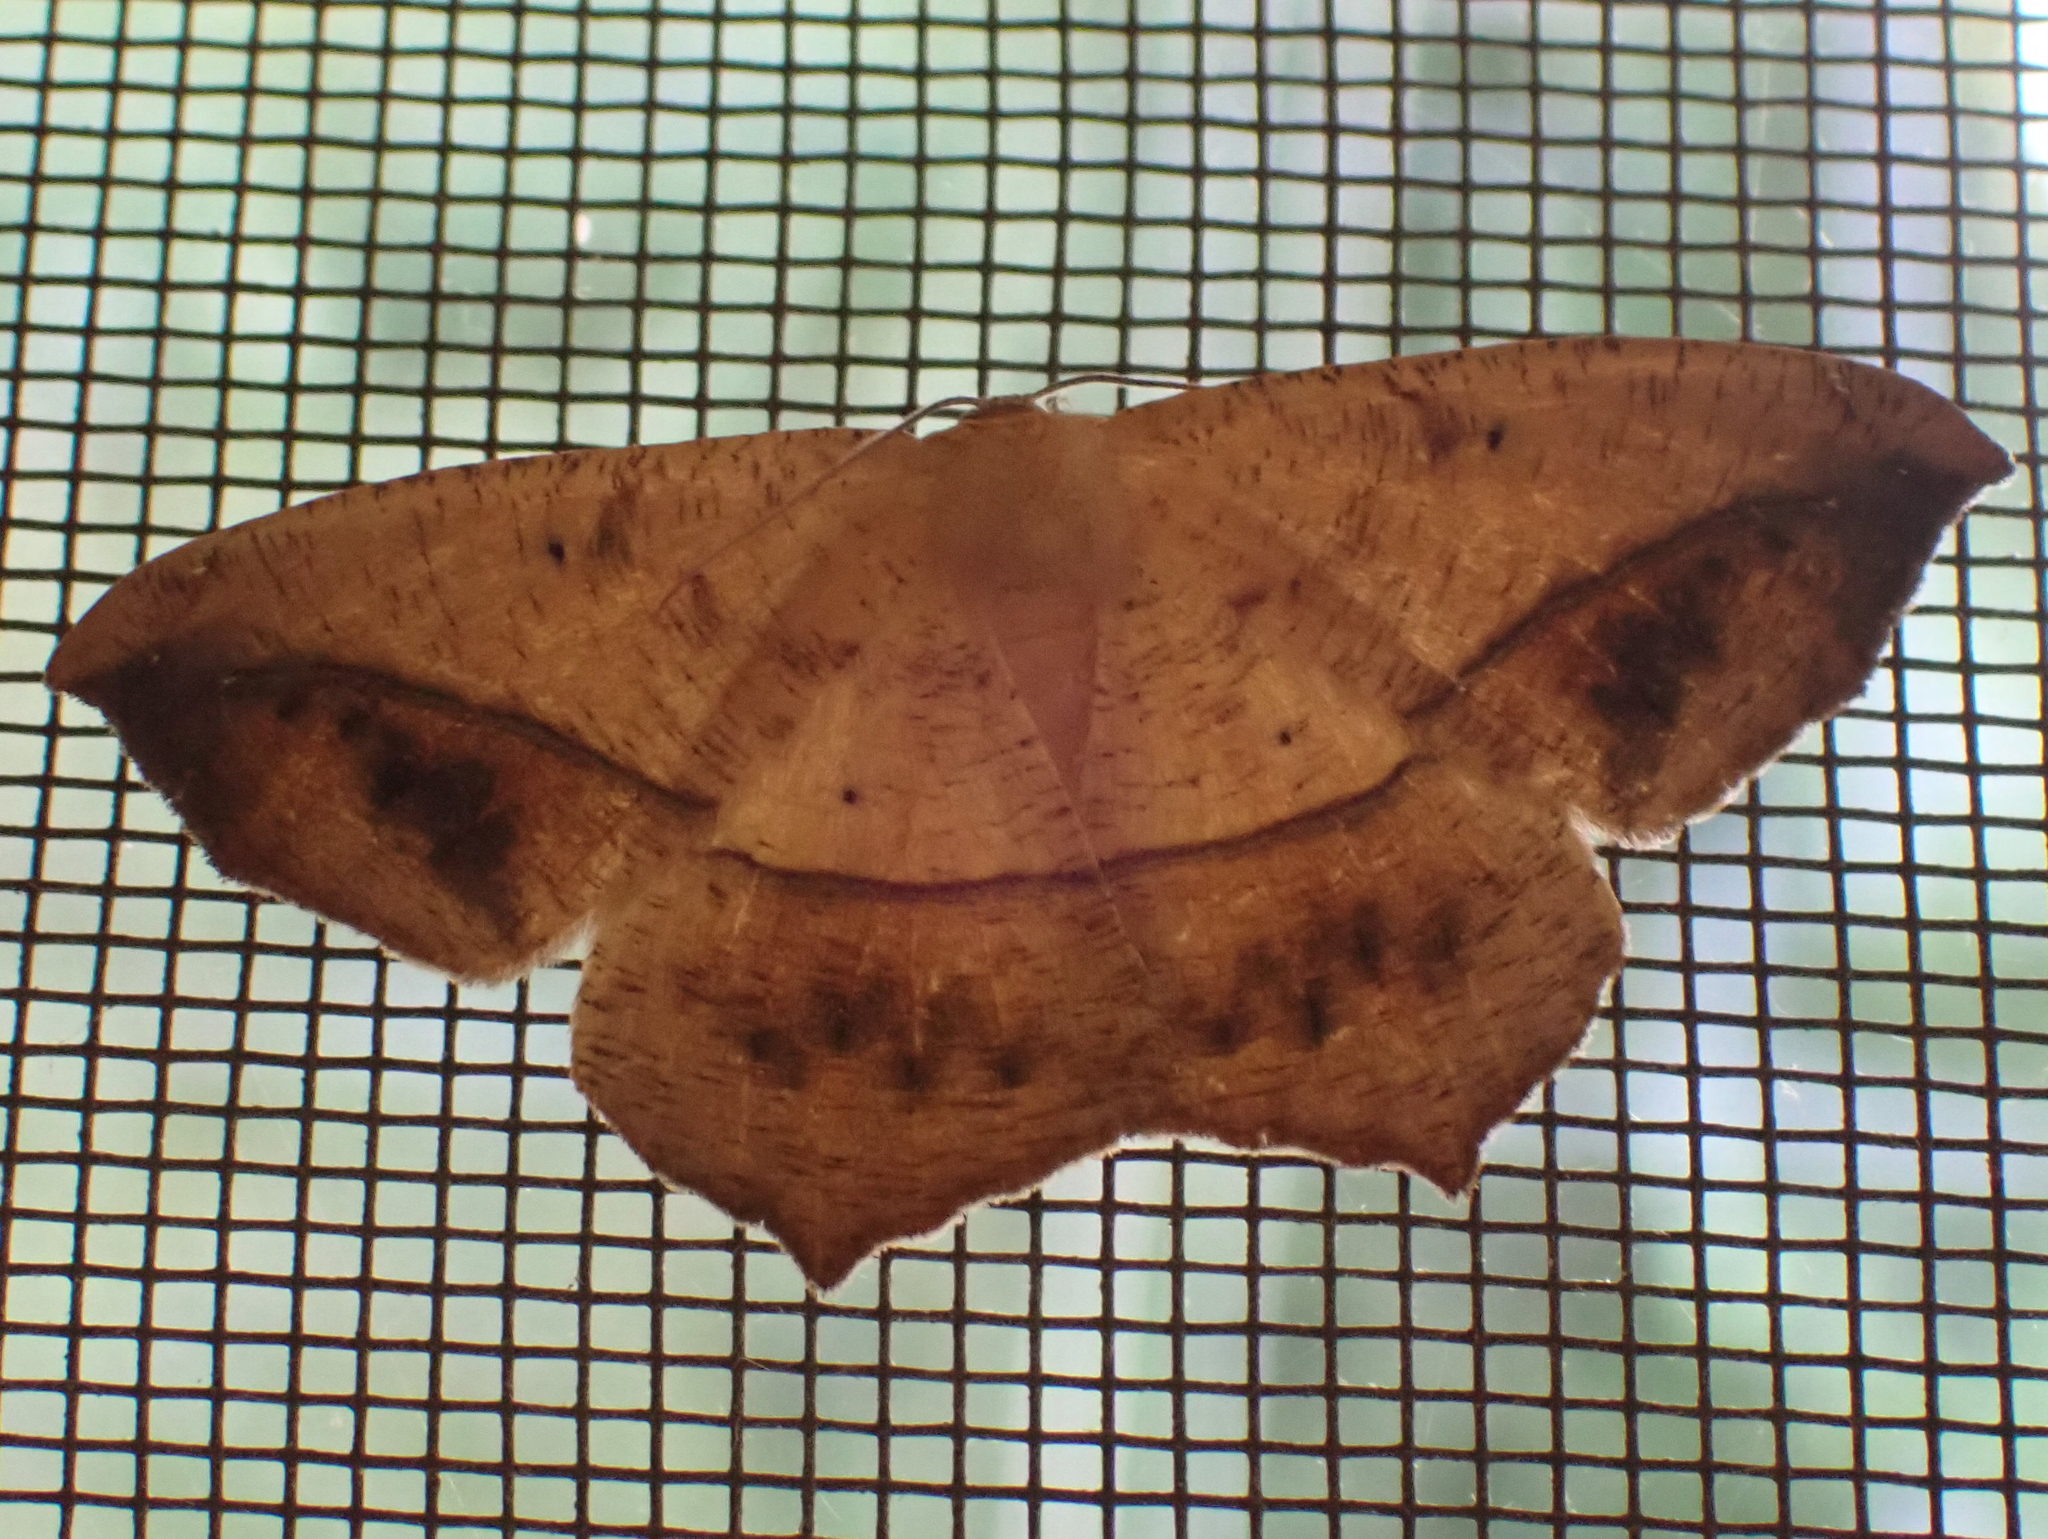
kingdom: Animalia
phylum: Arthropoda
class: Insecta
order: Lepidoptera
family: Geometridae
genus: Prochoerodes
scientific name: Prochoerodes lineola
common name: Large maple spanworm
